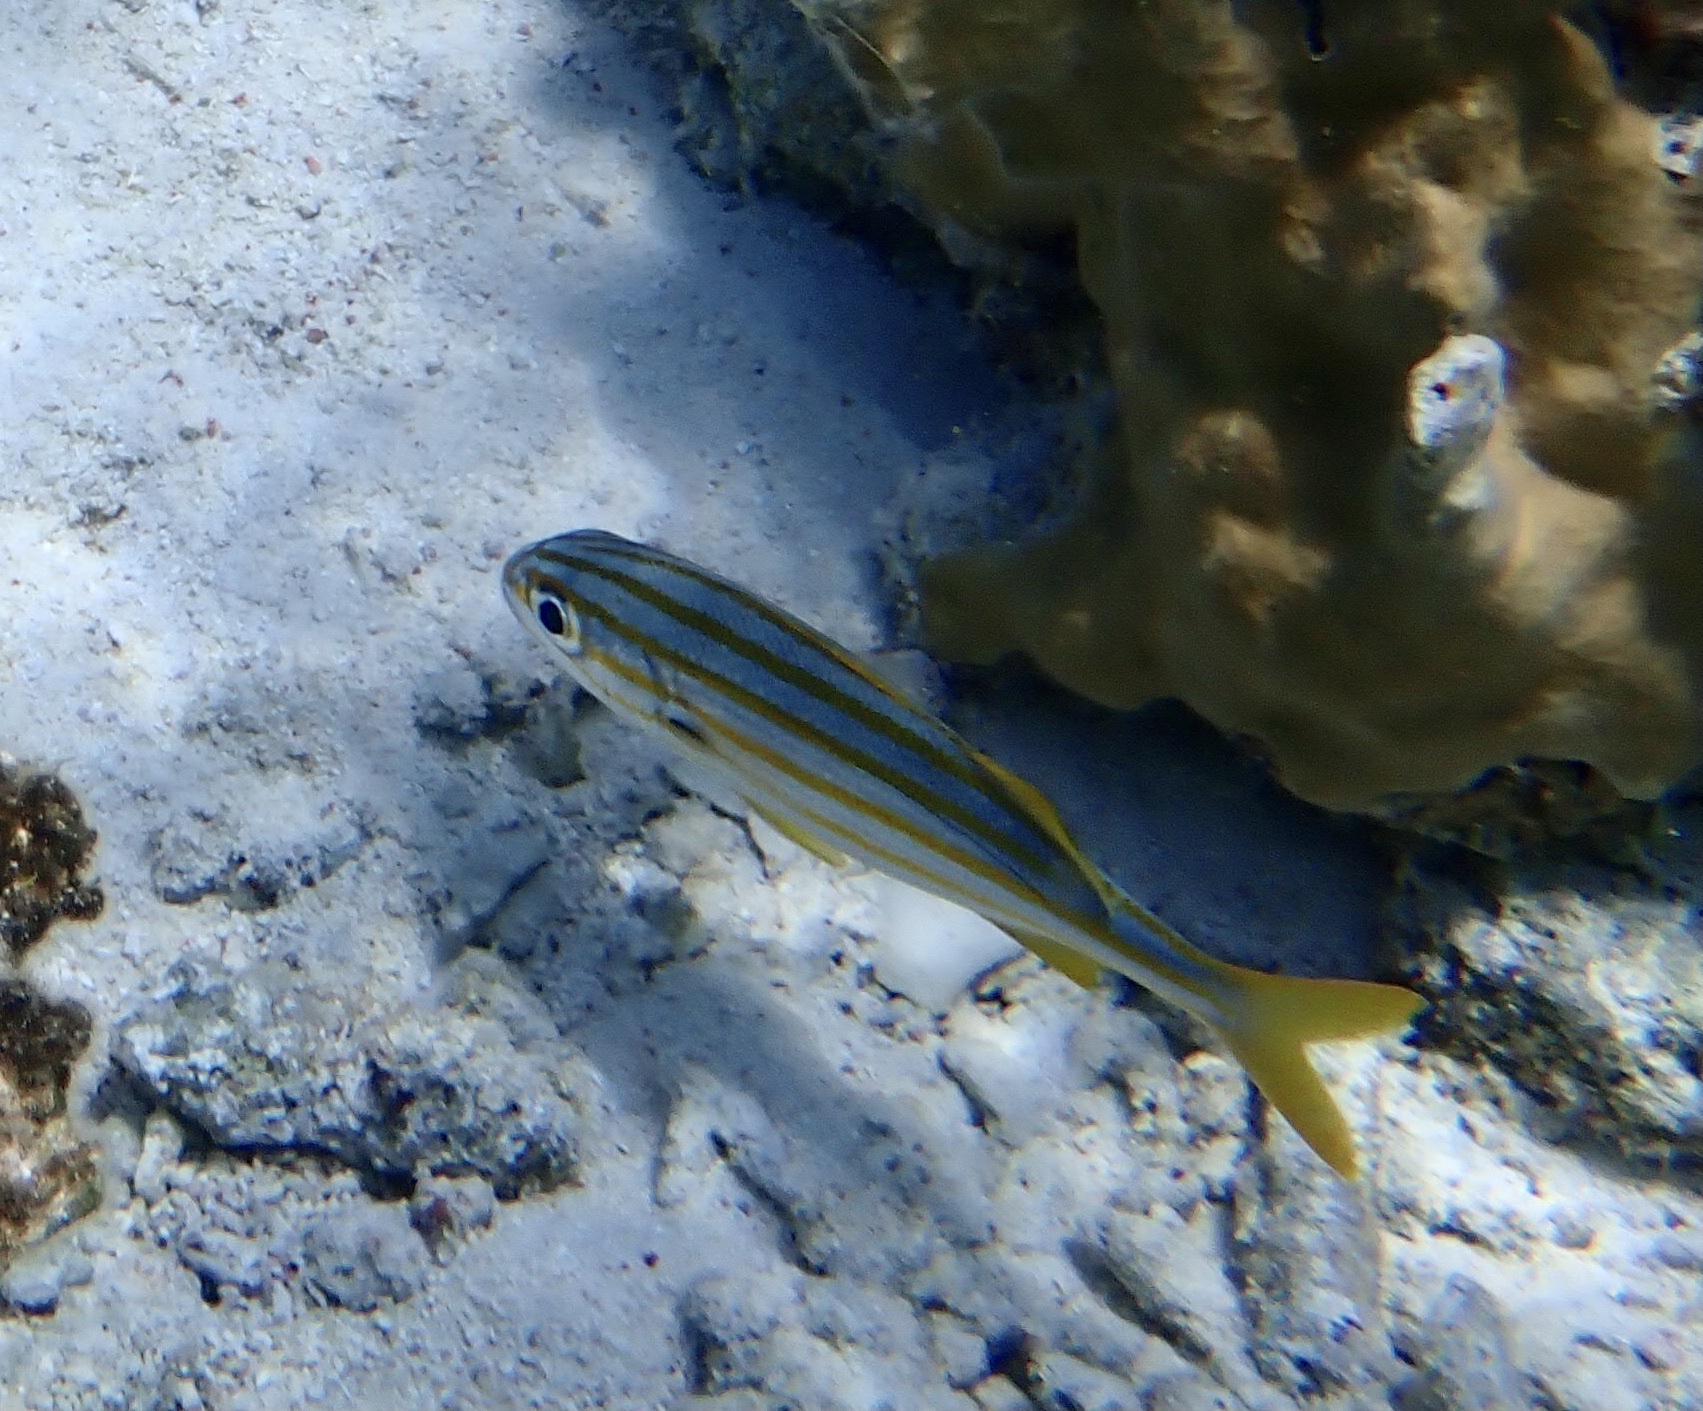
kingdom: Animalia
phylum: Chordata
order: Perciformes
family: Haemulidae
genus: Haemulon
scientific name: Haemulon chrysargyreum
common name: Smallmouth grunt
